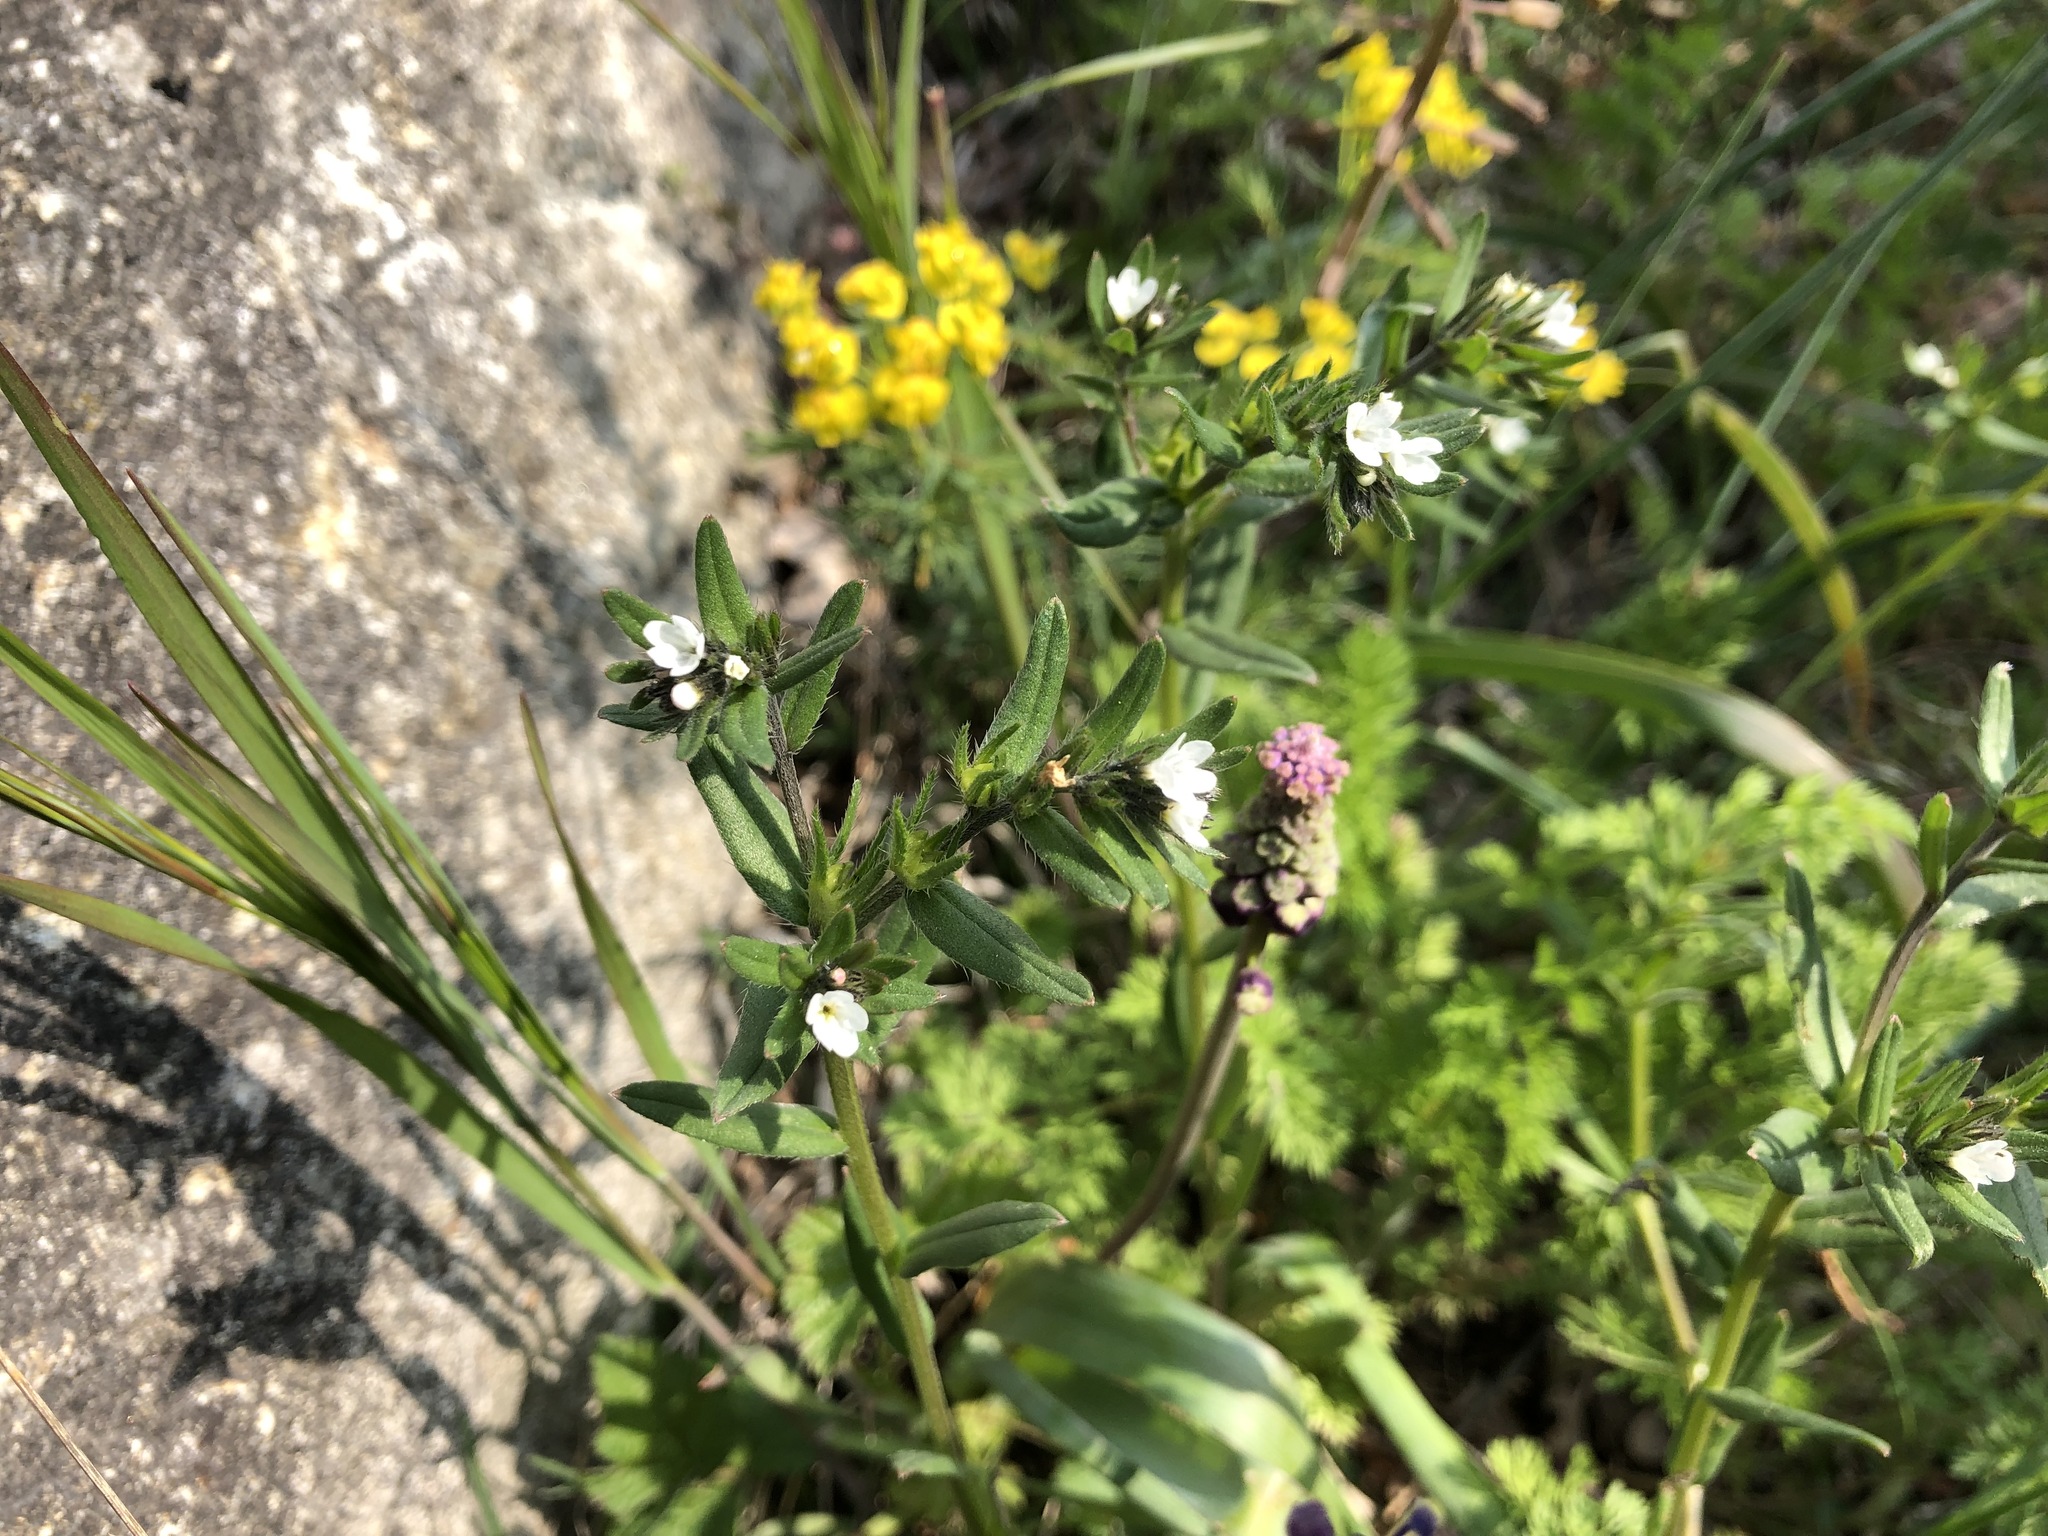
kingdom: Plantae
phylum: Tracheophyta
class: Magnoliopsida
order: Boraginales
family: Boraginaceae
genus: Buglossoides
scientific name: Buglossoides arvensis
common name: Corn gromwell
